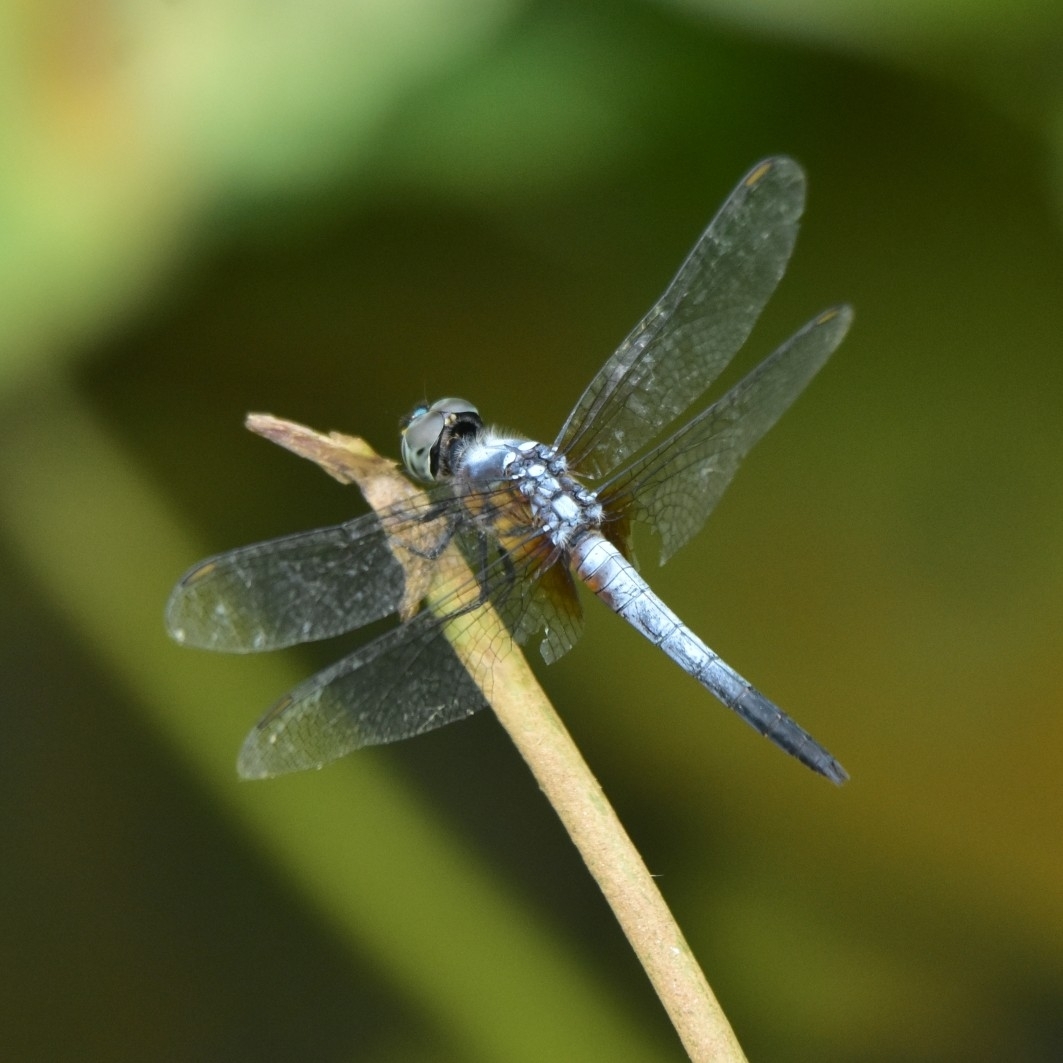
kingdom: Animalia
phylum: Arthropoda
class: Insecta
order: Odonata
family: Libellulidae
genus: Brachydiplax
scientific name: Brachydiplax chalybea
